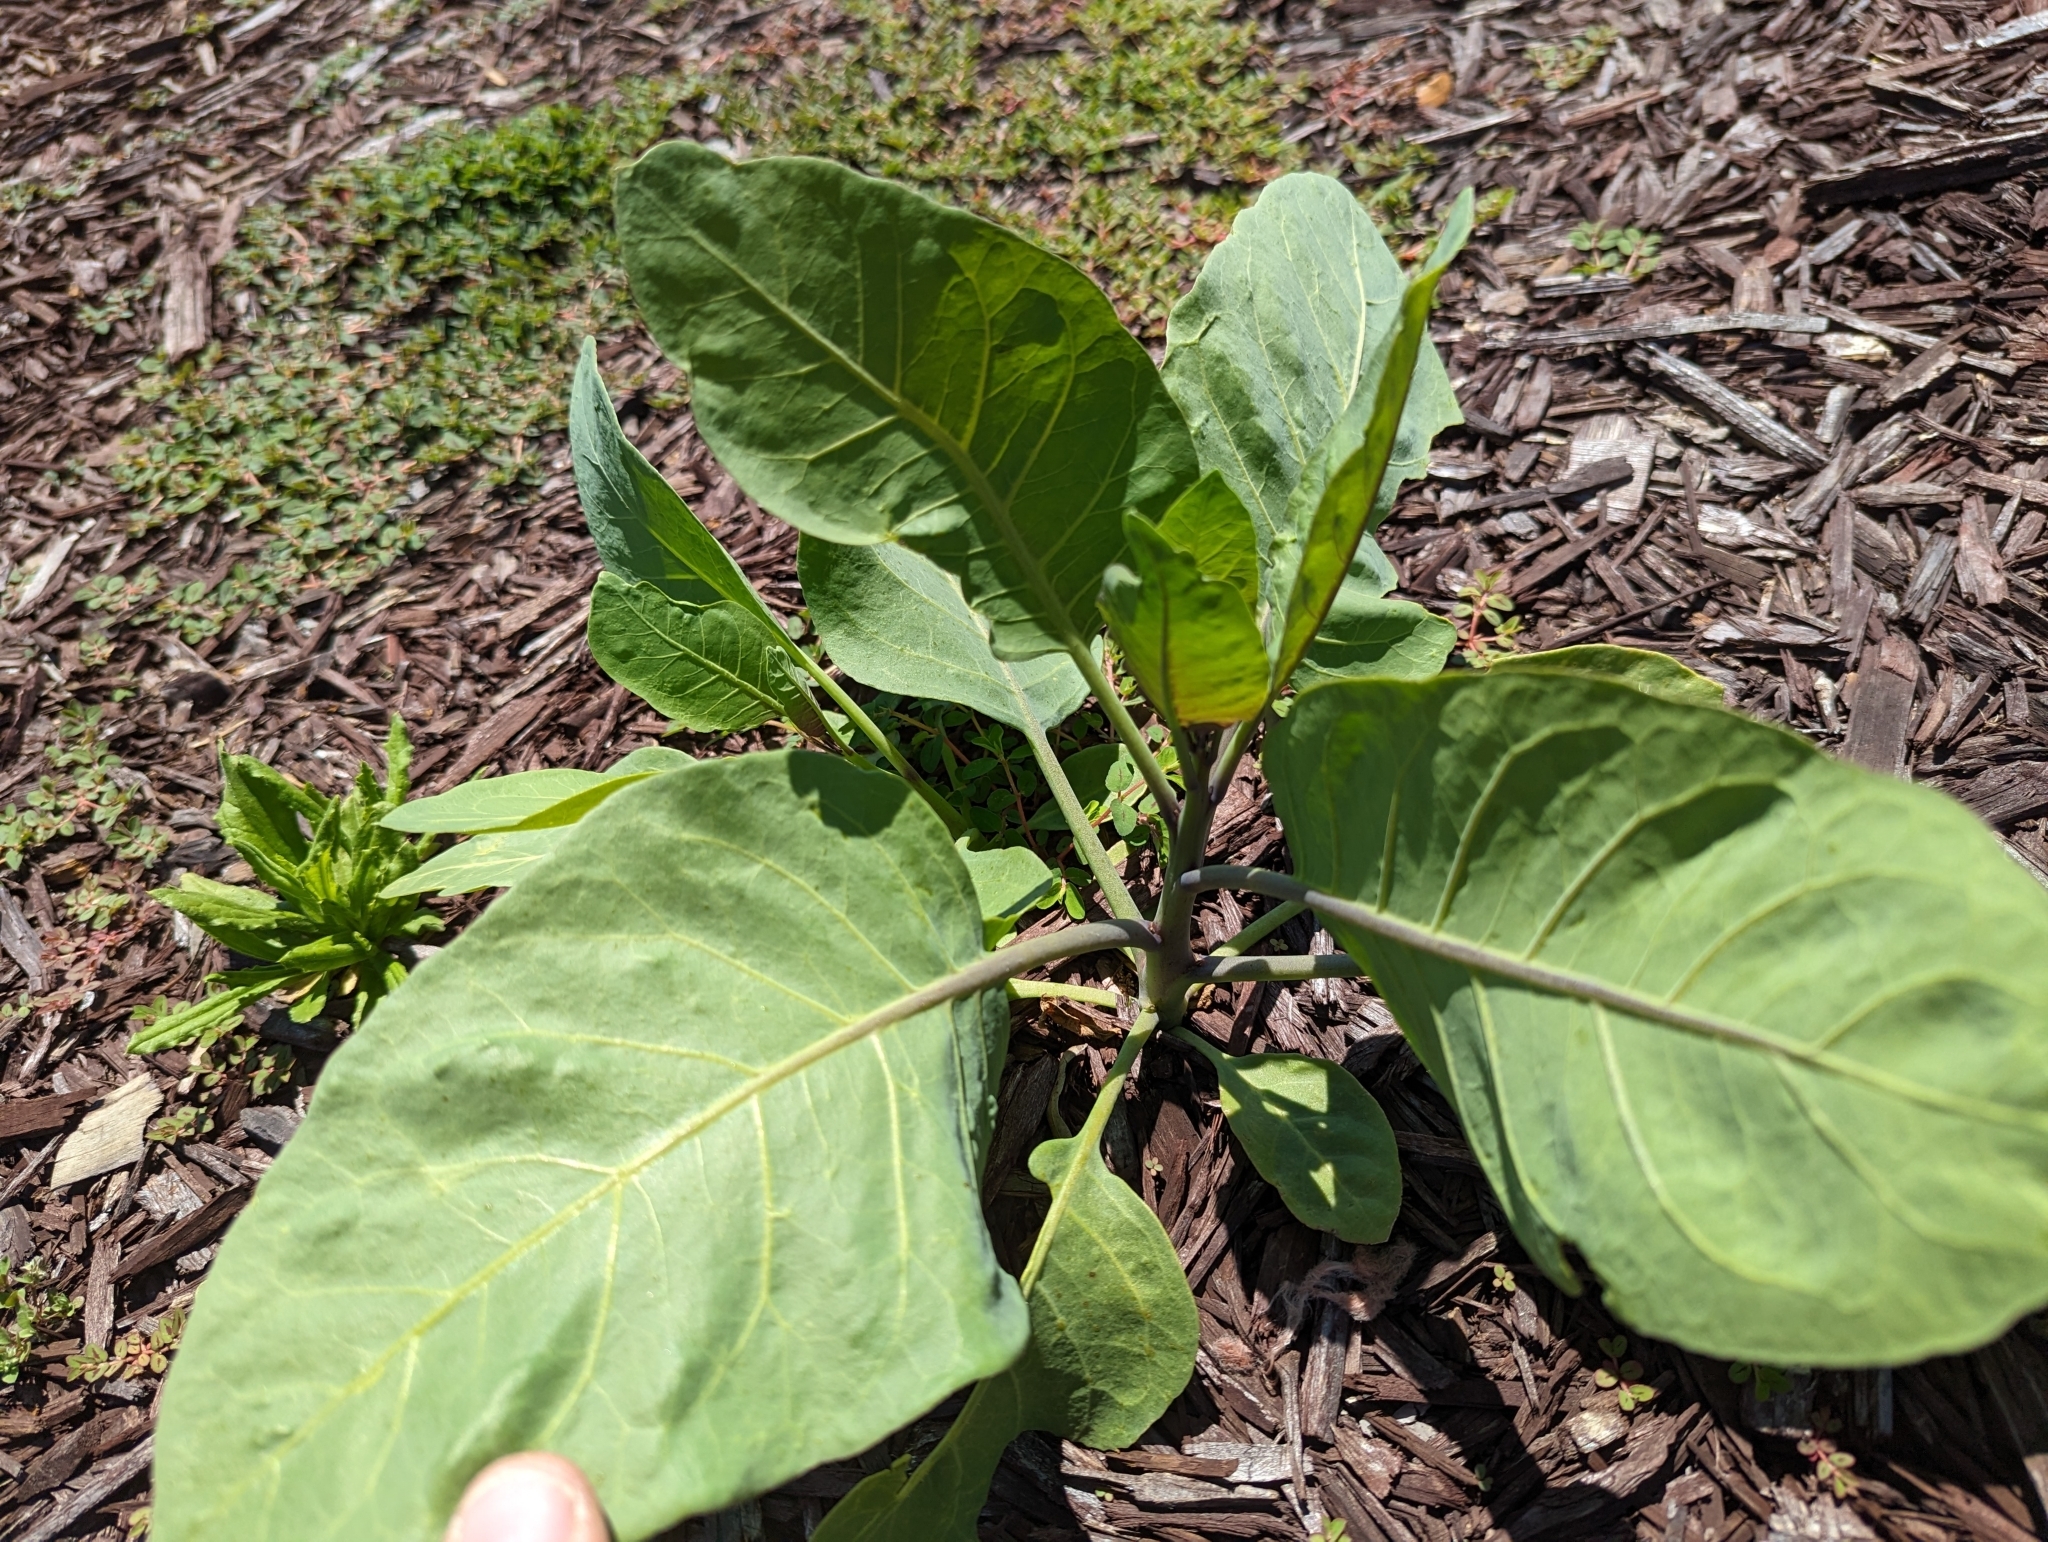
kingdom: Plantae
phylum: Tracheophyta
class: Magnoliopsida
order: Solanales
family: Solanaceae
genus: Nicotiana
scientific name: Nicotiana glauca
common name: Tree tobacco
